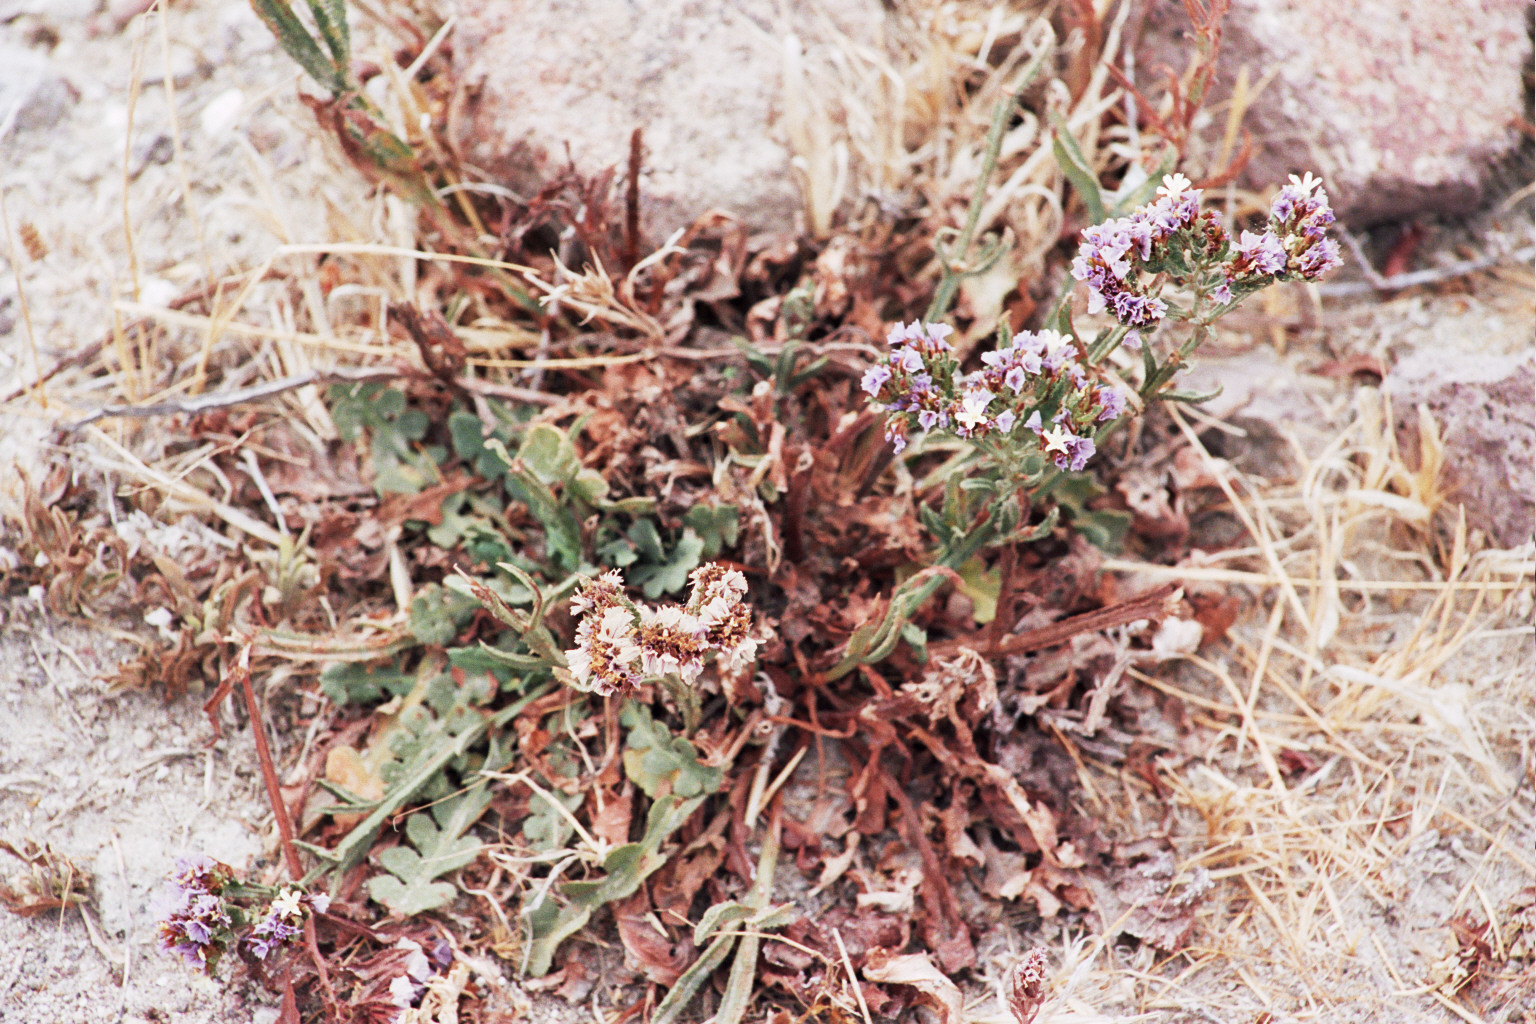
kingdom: Plantae
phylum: Tracheophyta
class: Magnoliopsida
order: Caryophyllales
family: Plumbaginaceae
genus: Limonium
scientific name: Limonium sinuatum
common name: Statice
